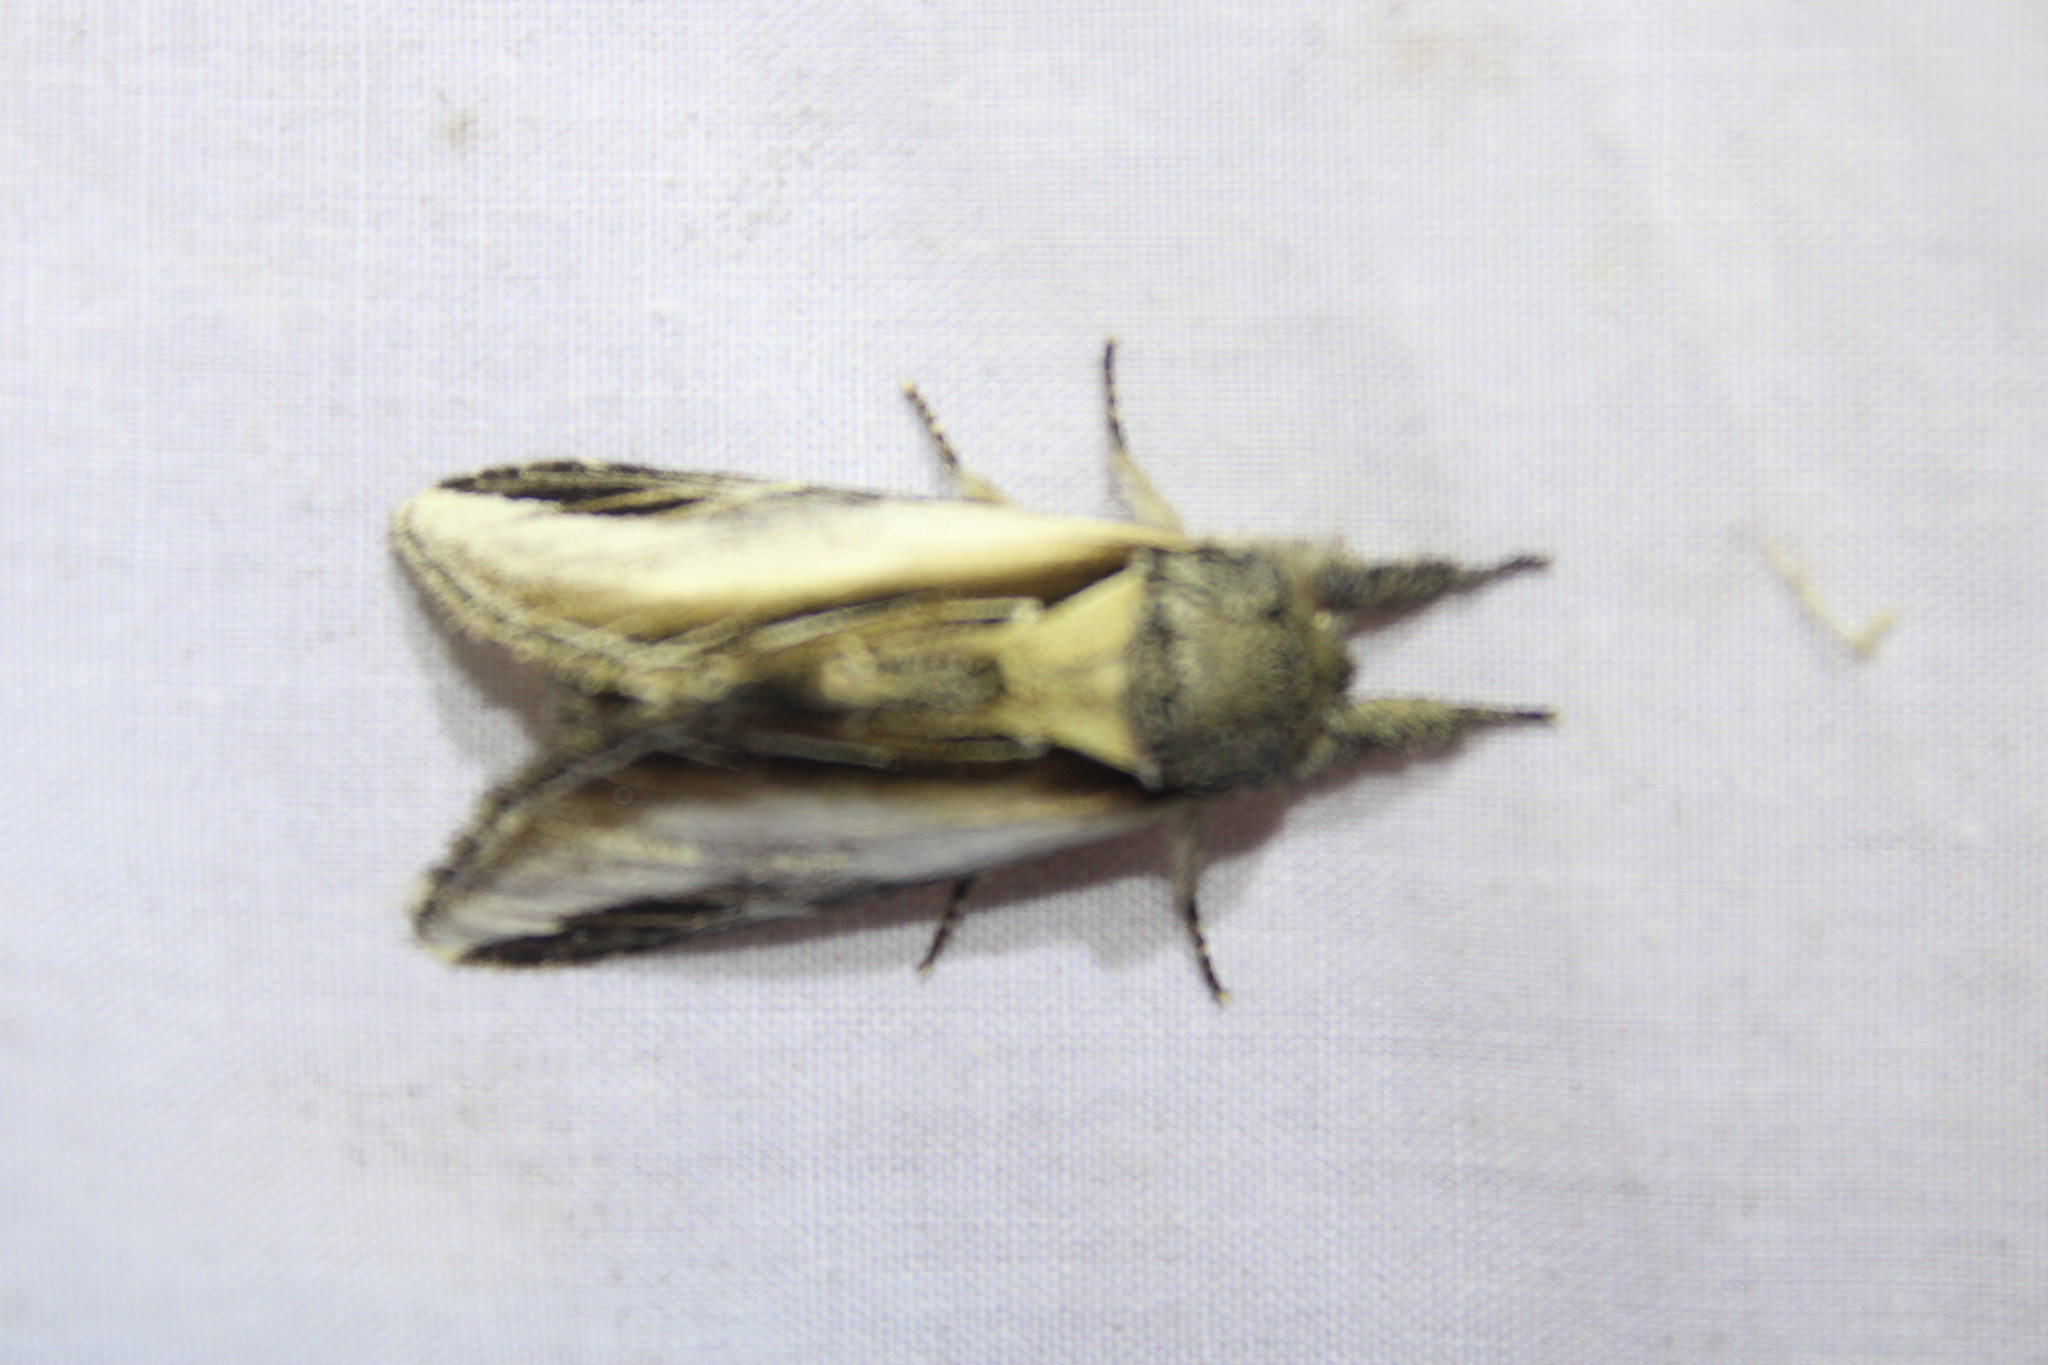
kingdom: Animalia
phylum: Arthropoda
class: Insecta
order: Lepidoptera
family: Notodontidae
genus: Pheosia
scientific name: Pheosia rimosa
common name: Black-rimmed prominent
